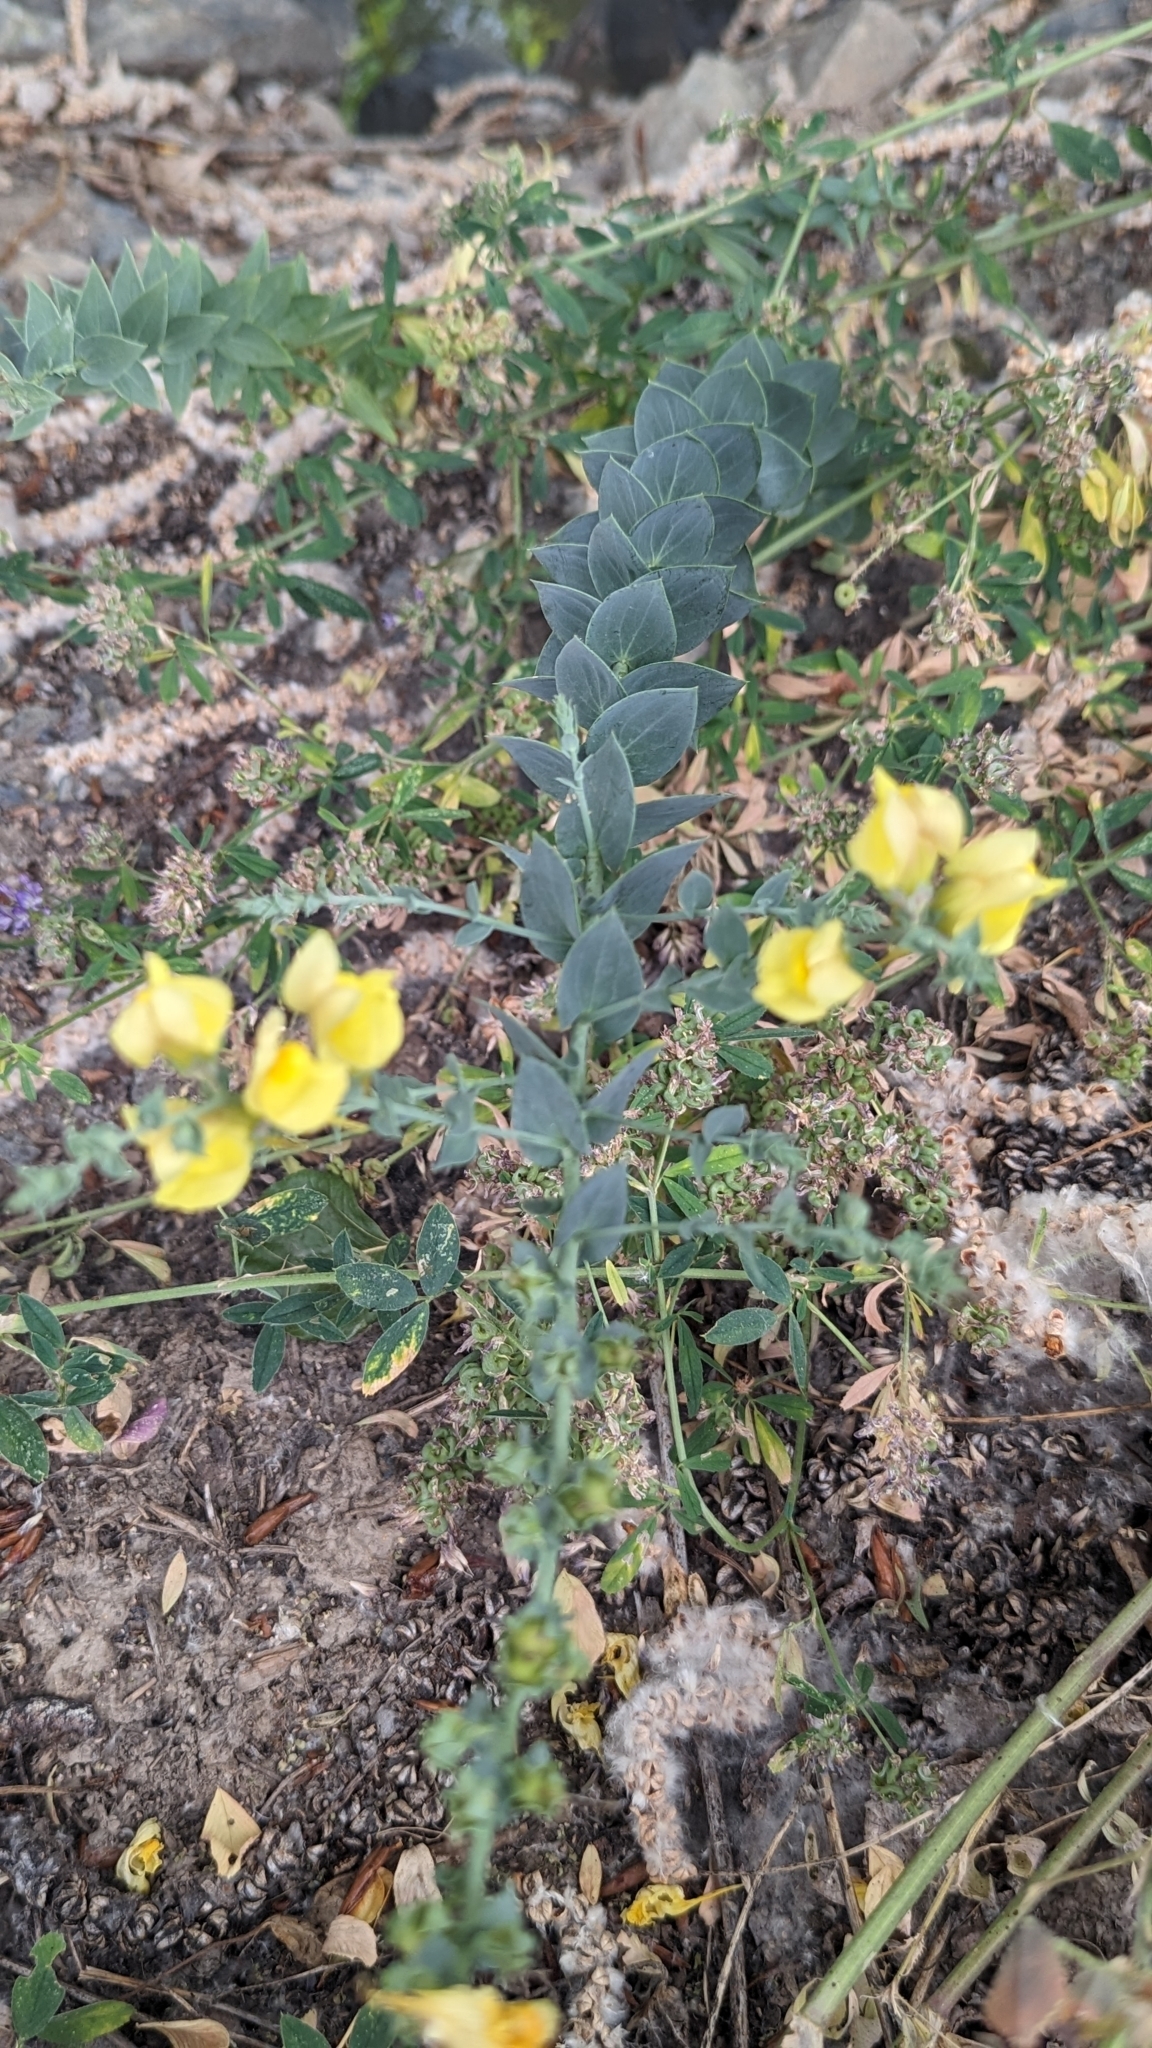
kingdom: Plantae
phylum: Tracheophyta
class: Magnoliopsida
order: Lamiales
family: Plantaginaceae
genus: Linaria
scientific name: Linaria dalmatica
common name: Dalmatian toadflax
